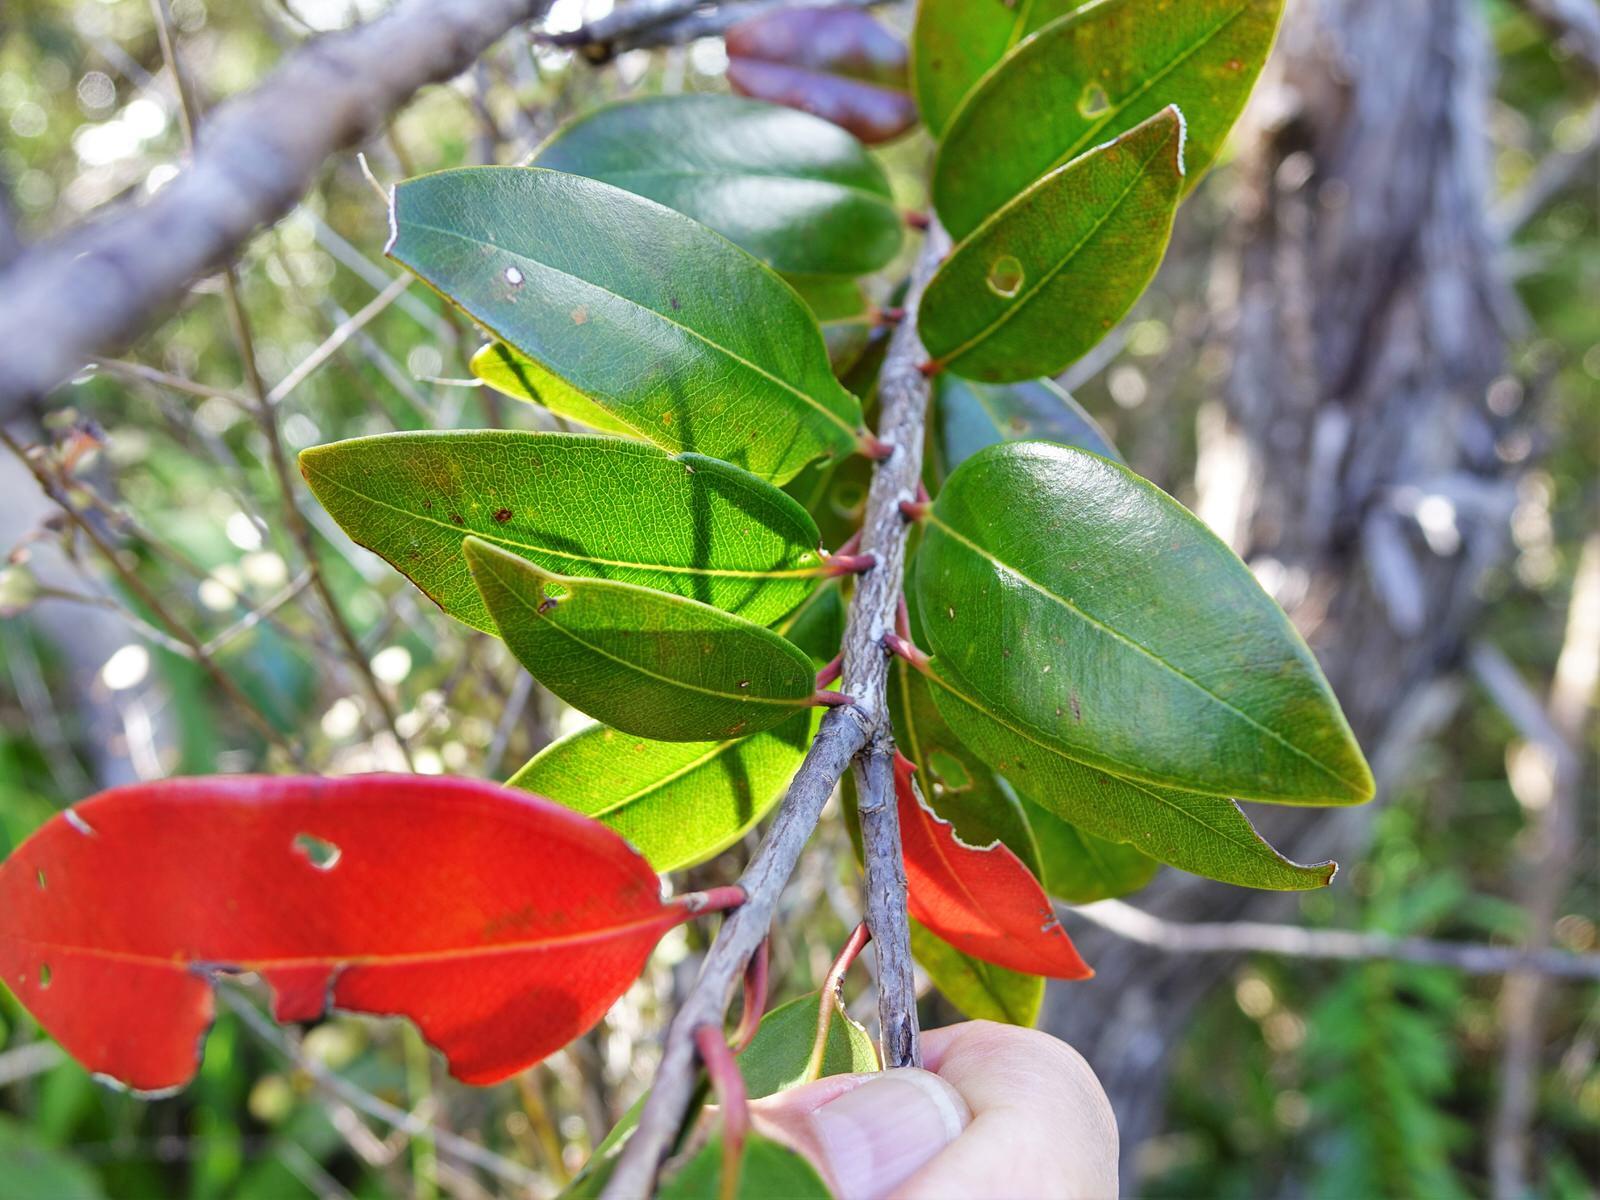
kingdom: Plantae
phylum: Tracheophyta
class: Magnoliopsida
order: Myrtales
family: Myrtaceae
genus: Metrosideros
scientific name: Metrosideros robusta
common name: Northern rata
